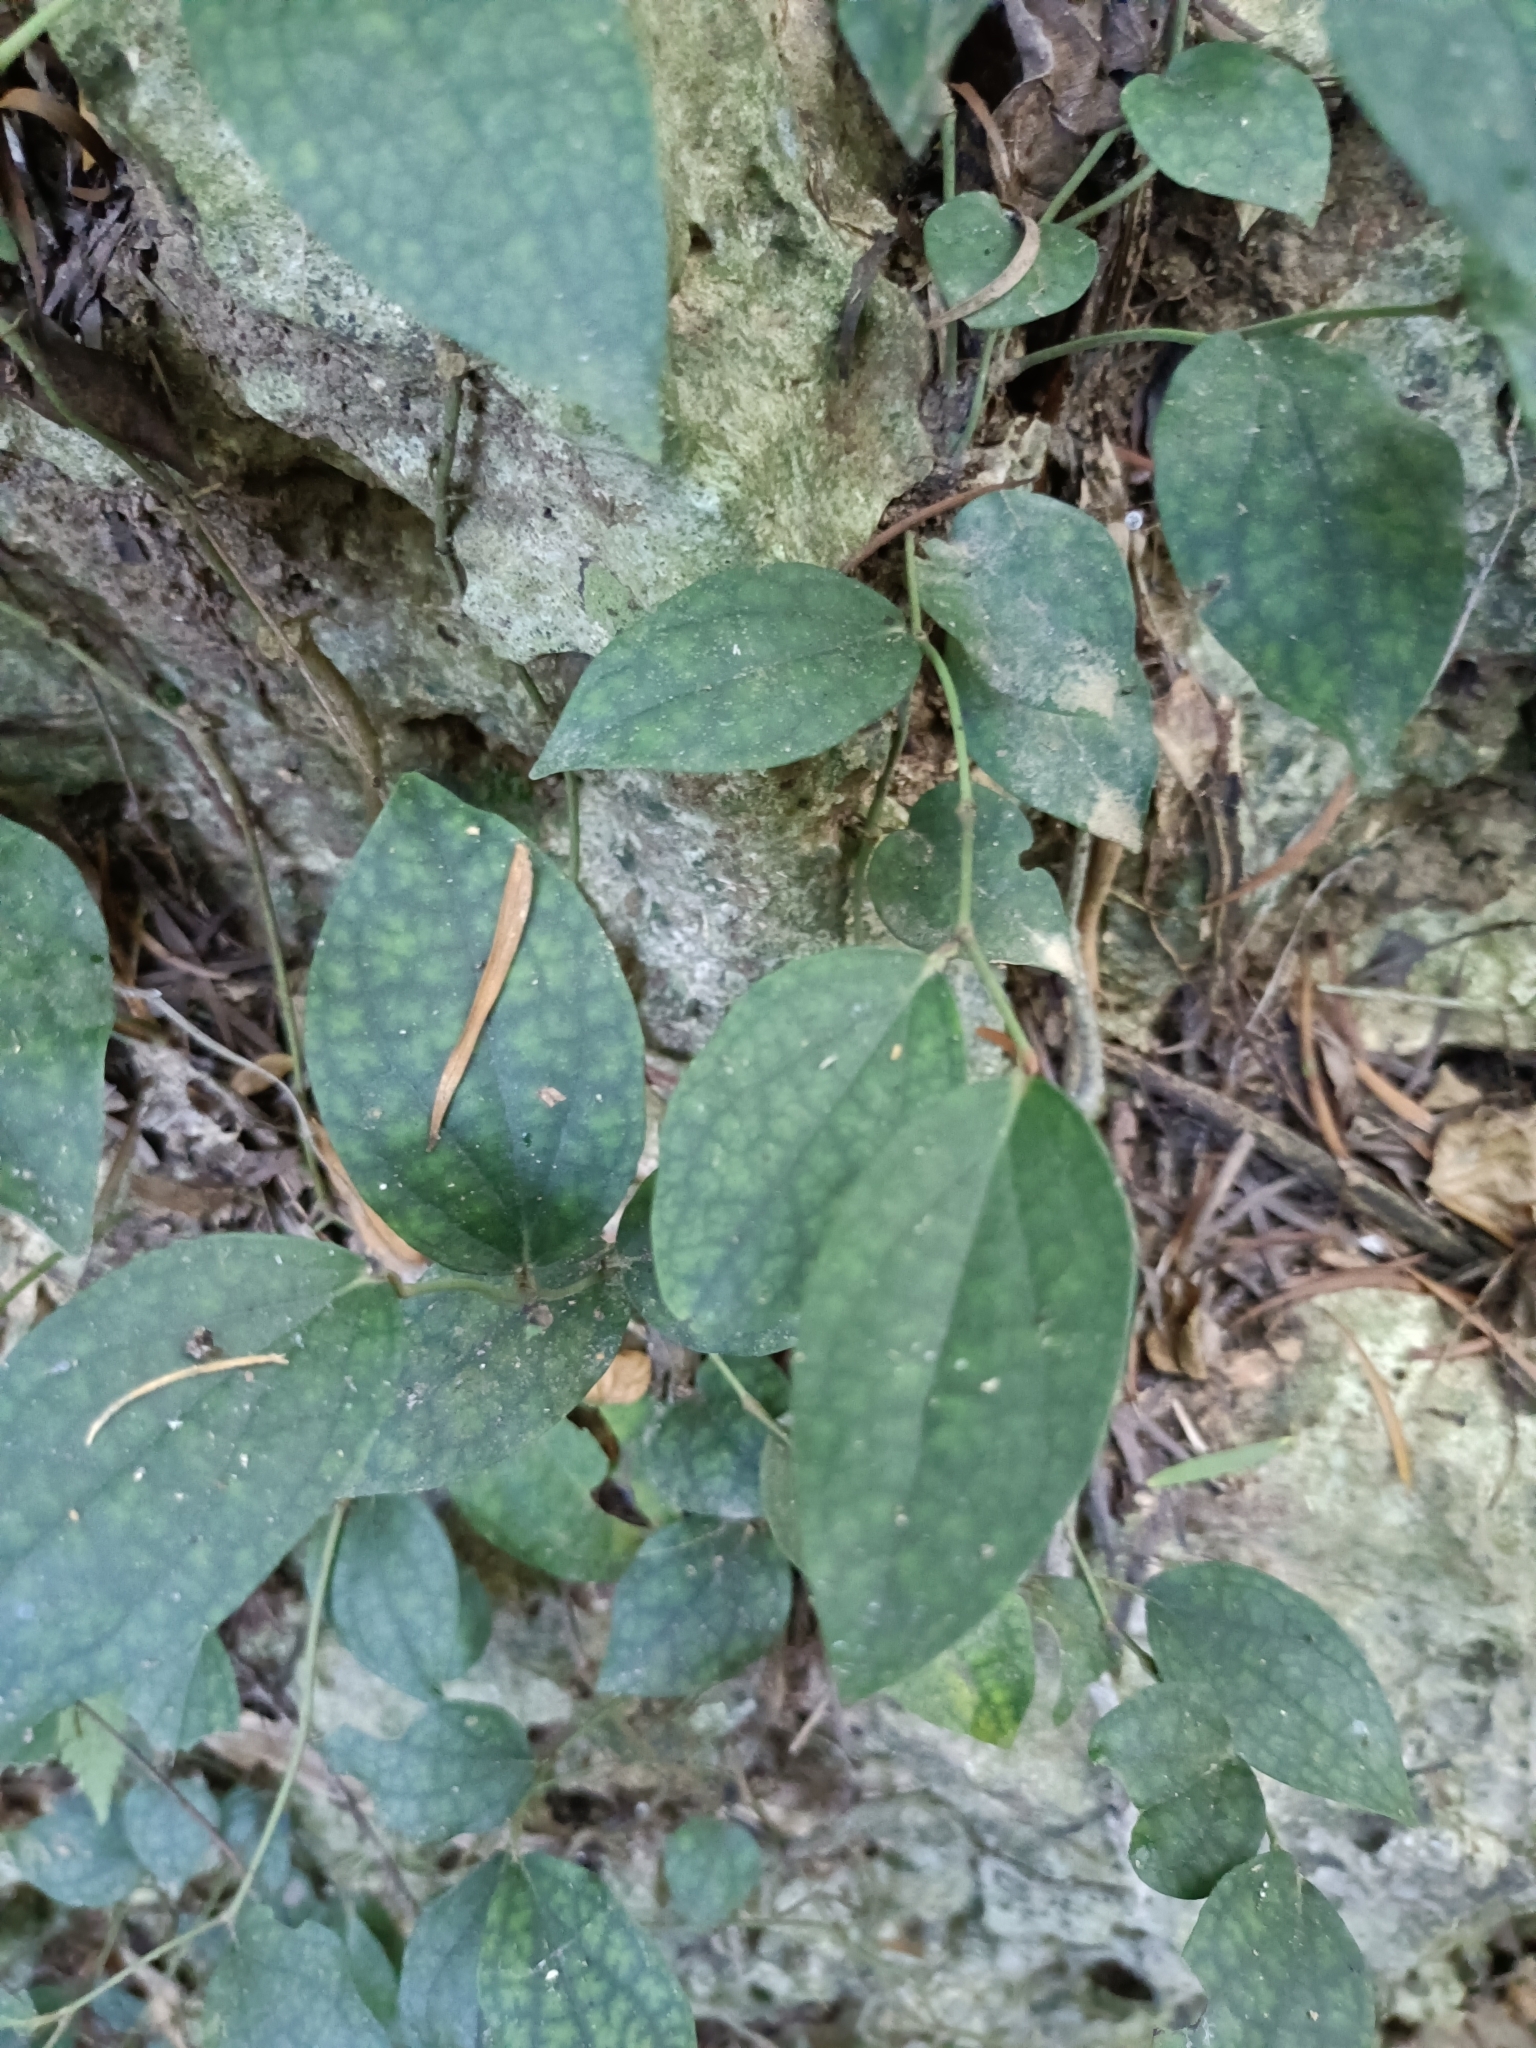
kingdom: Plantae
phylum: Tracheophyta
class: Magnoliopsida
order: Piperales
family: Piperaceae
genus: Piper
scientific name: Piper kadsura
